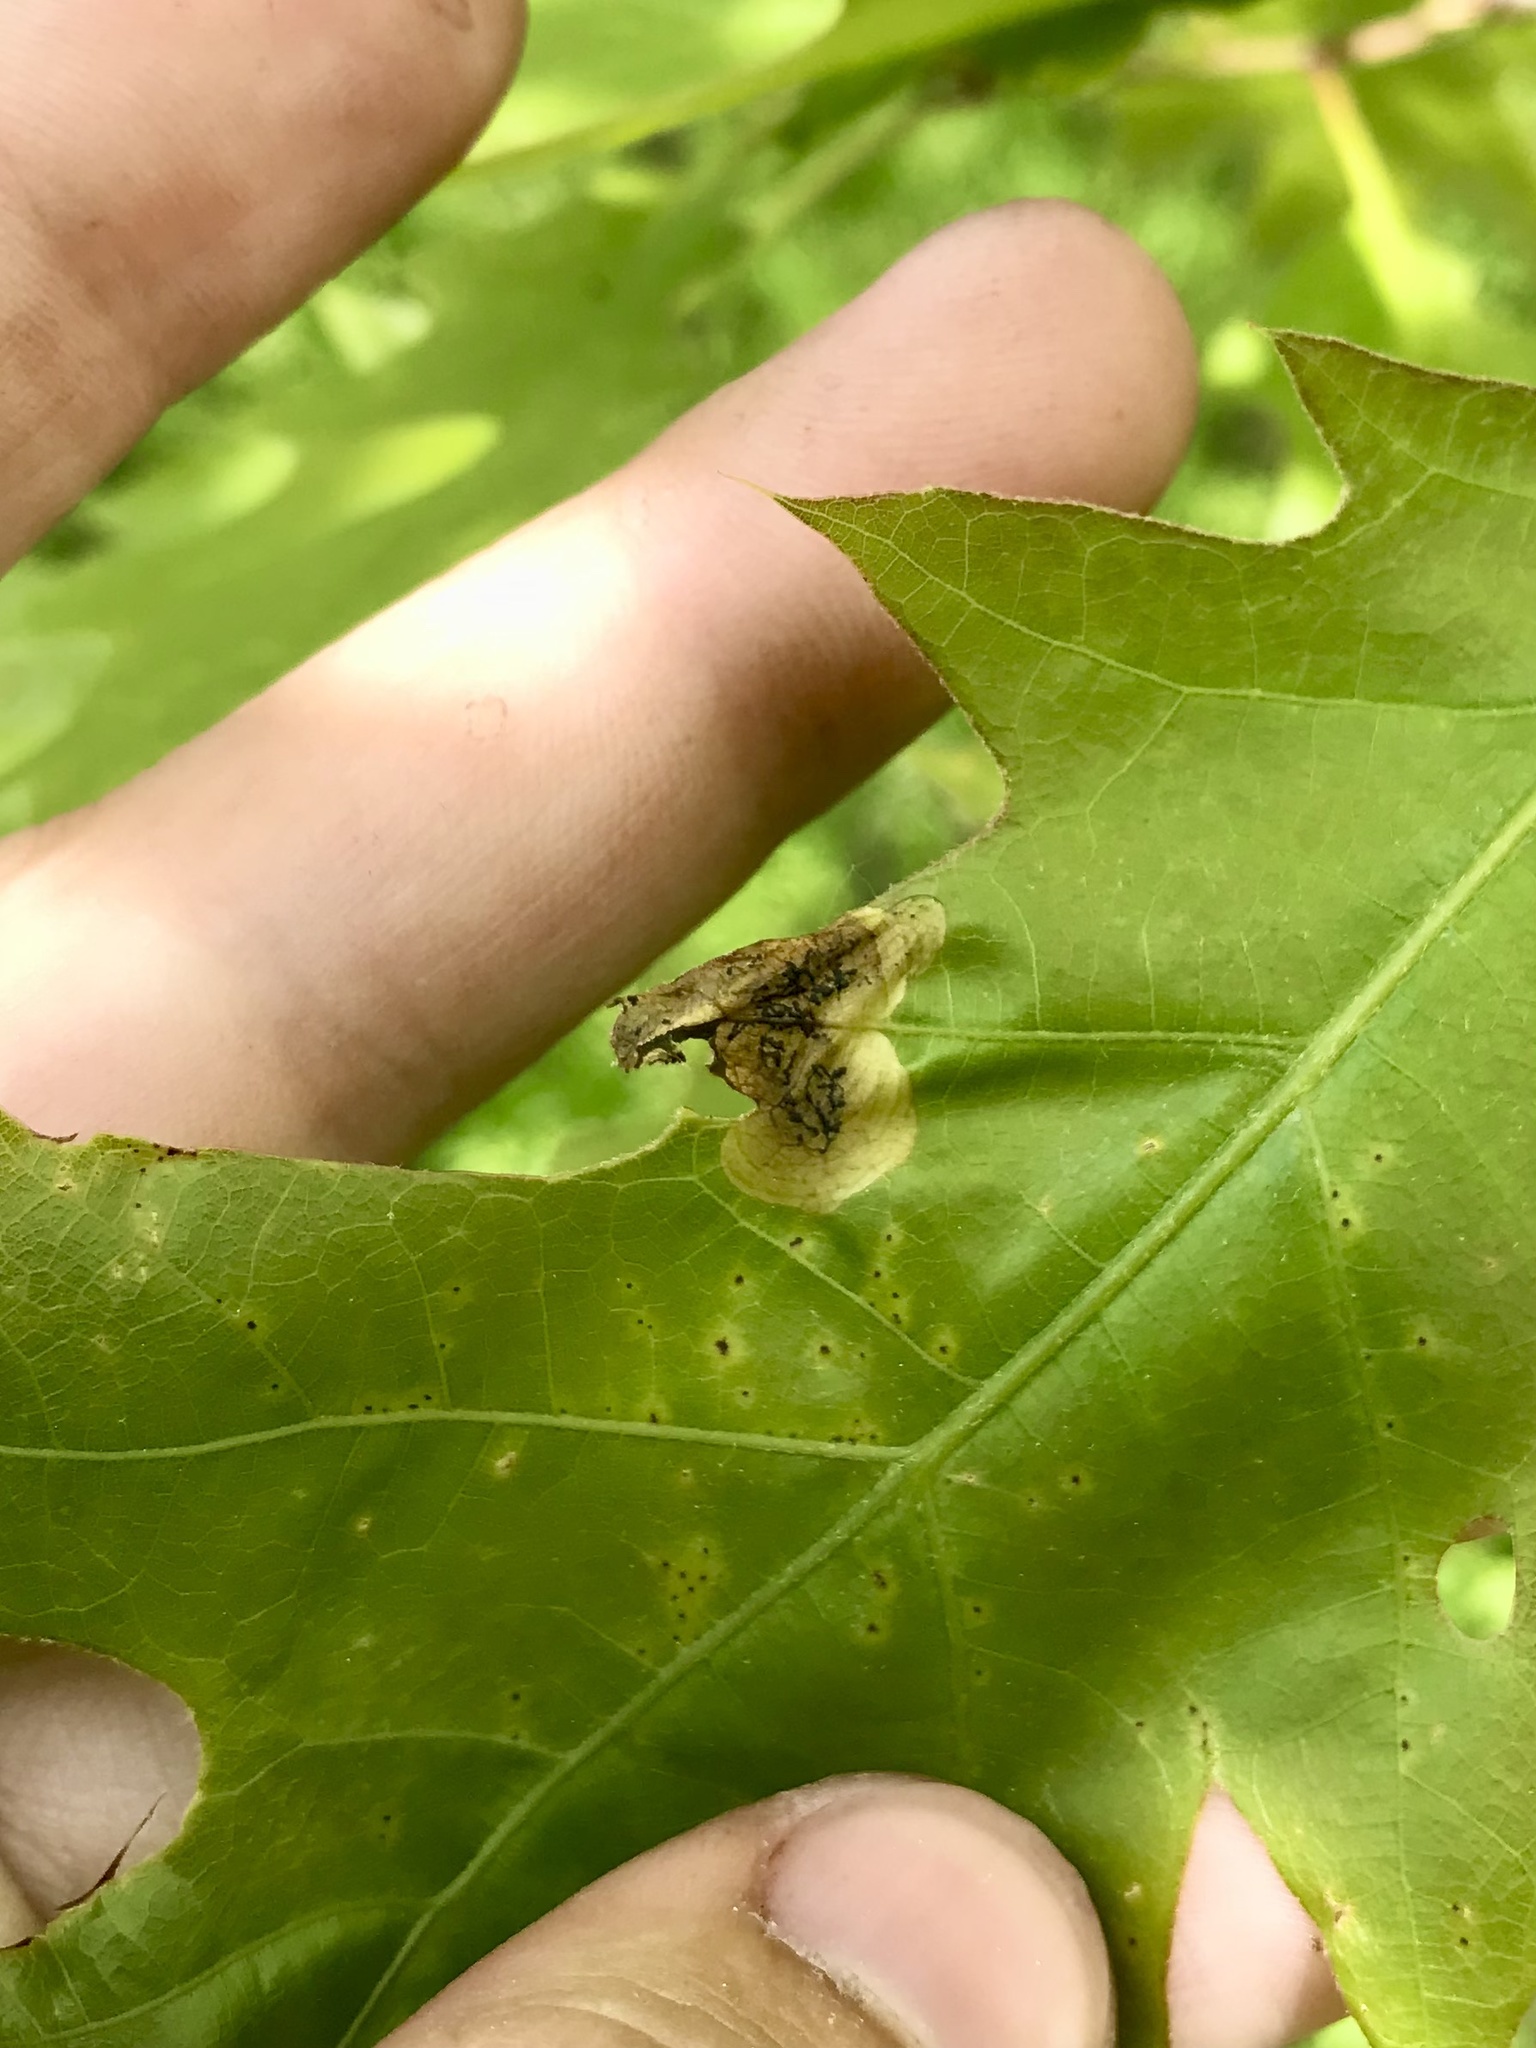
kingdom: Animalia
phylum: Arthropoda
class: Insecta
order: Diptera
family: Agromyzidae
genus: Japanagromyza
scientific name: Japanagromyza viridula
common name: Oak shothole leafminer
